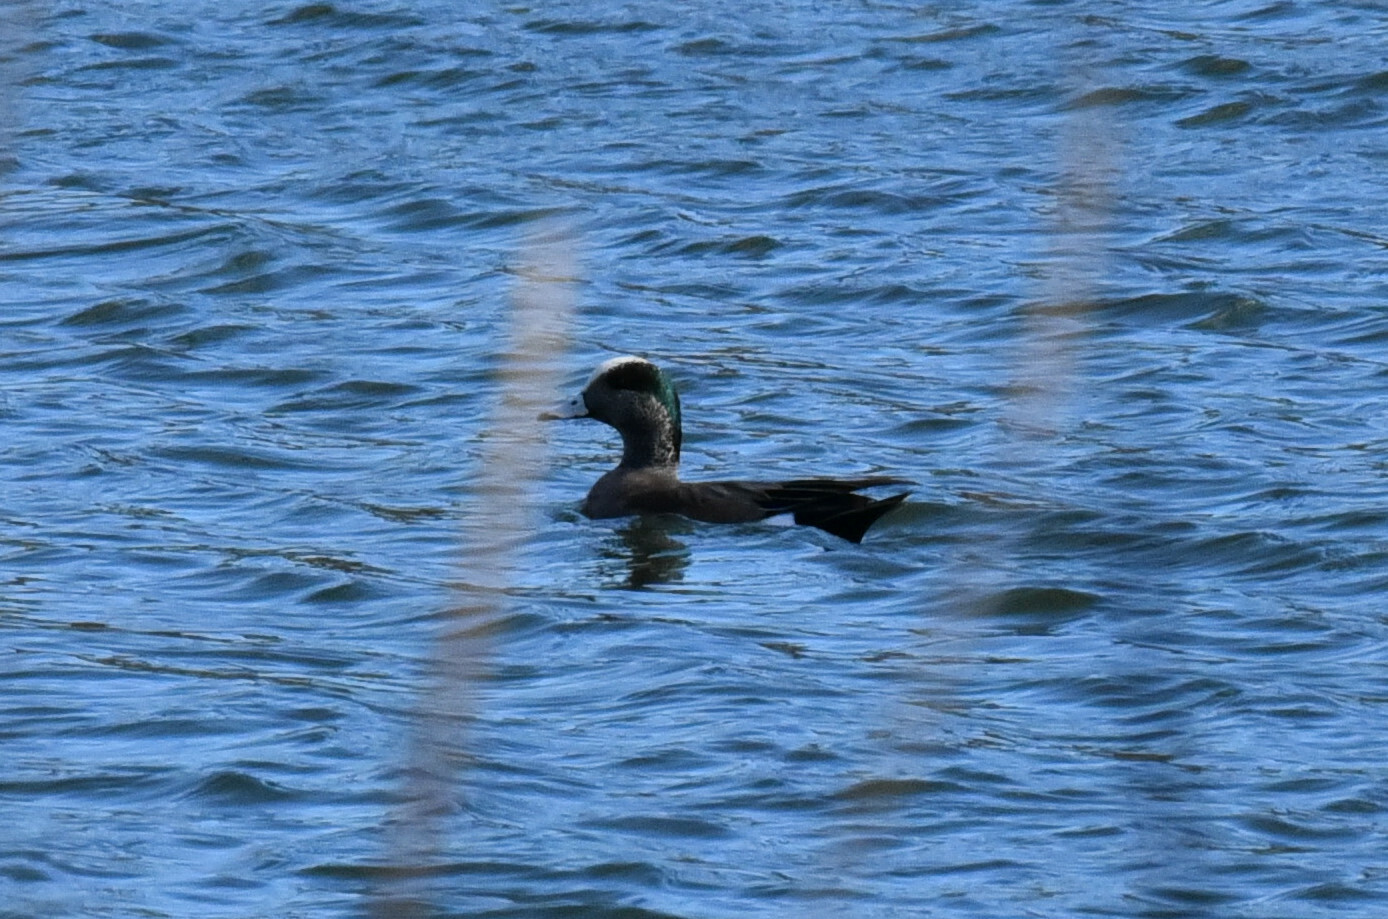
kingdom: Animalia
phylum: Chordata
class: Aves
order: Anseriformes
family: Anatidae
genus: Mareca
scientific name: Mareca americana
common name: American wigeon
